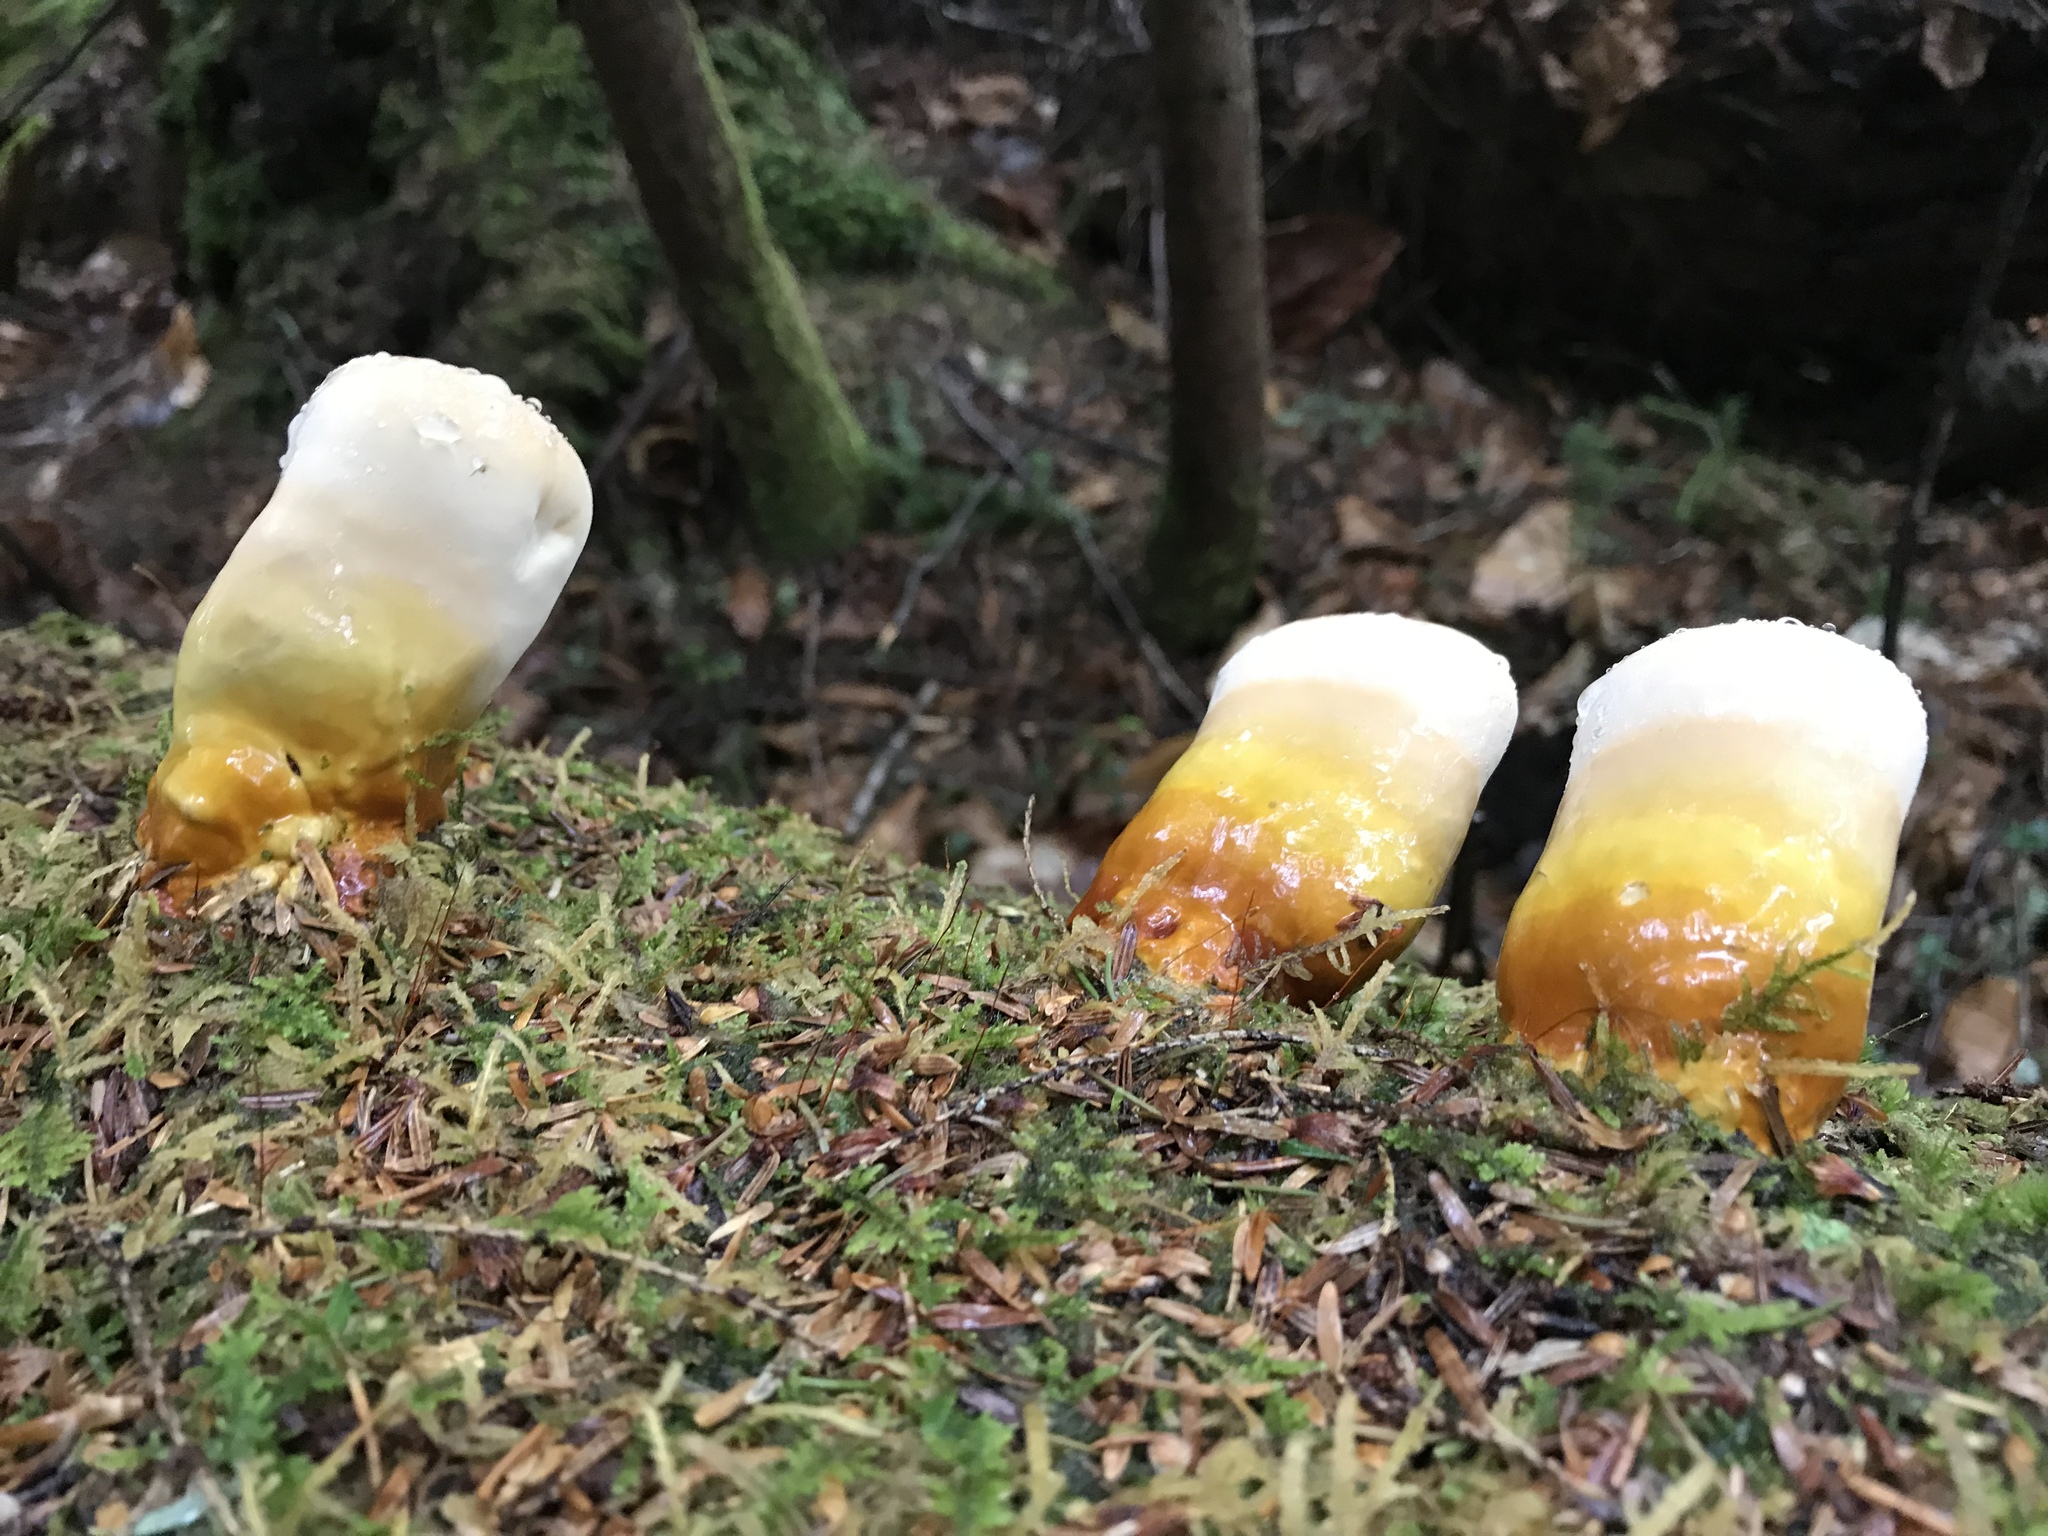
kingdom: Fungi
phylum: Basidiomycota
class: Agaricomycetes
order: Polyporales
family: Polyporaceae
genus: Ganoderma
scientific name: Ganoderma tsugae
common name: Hemlock varnish shelf
